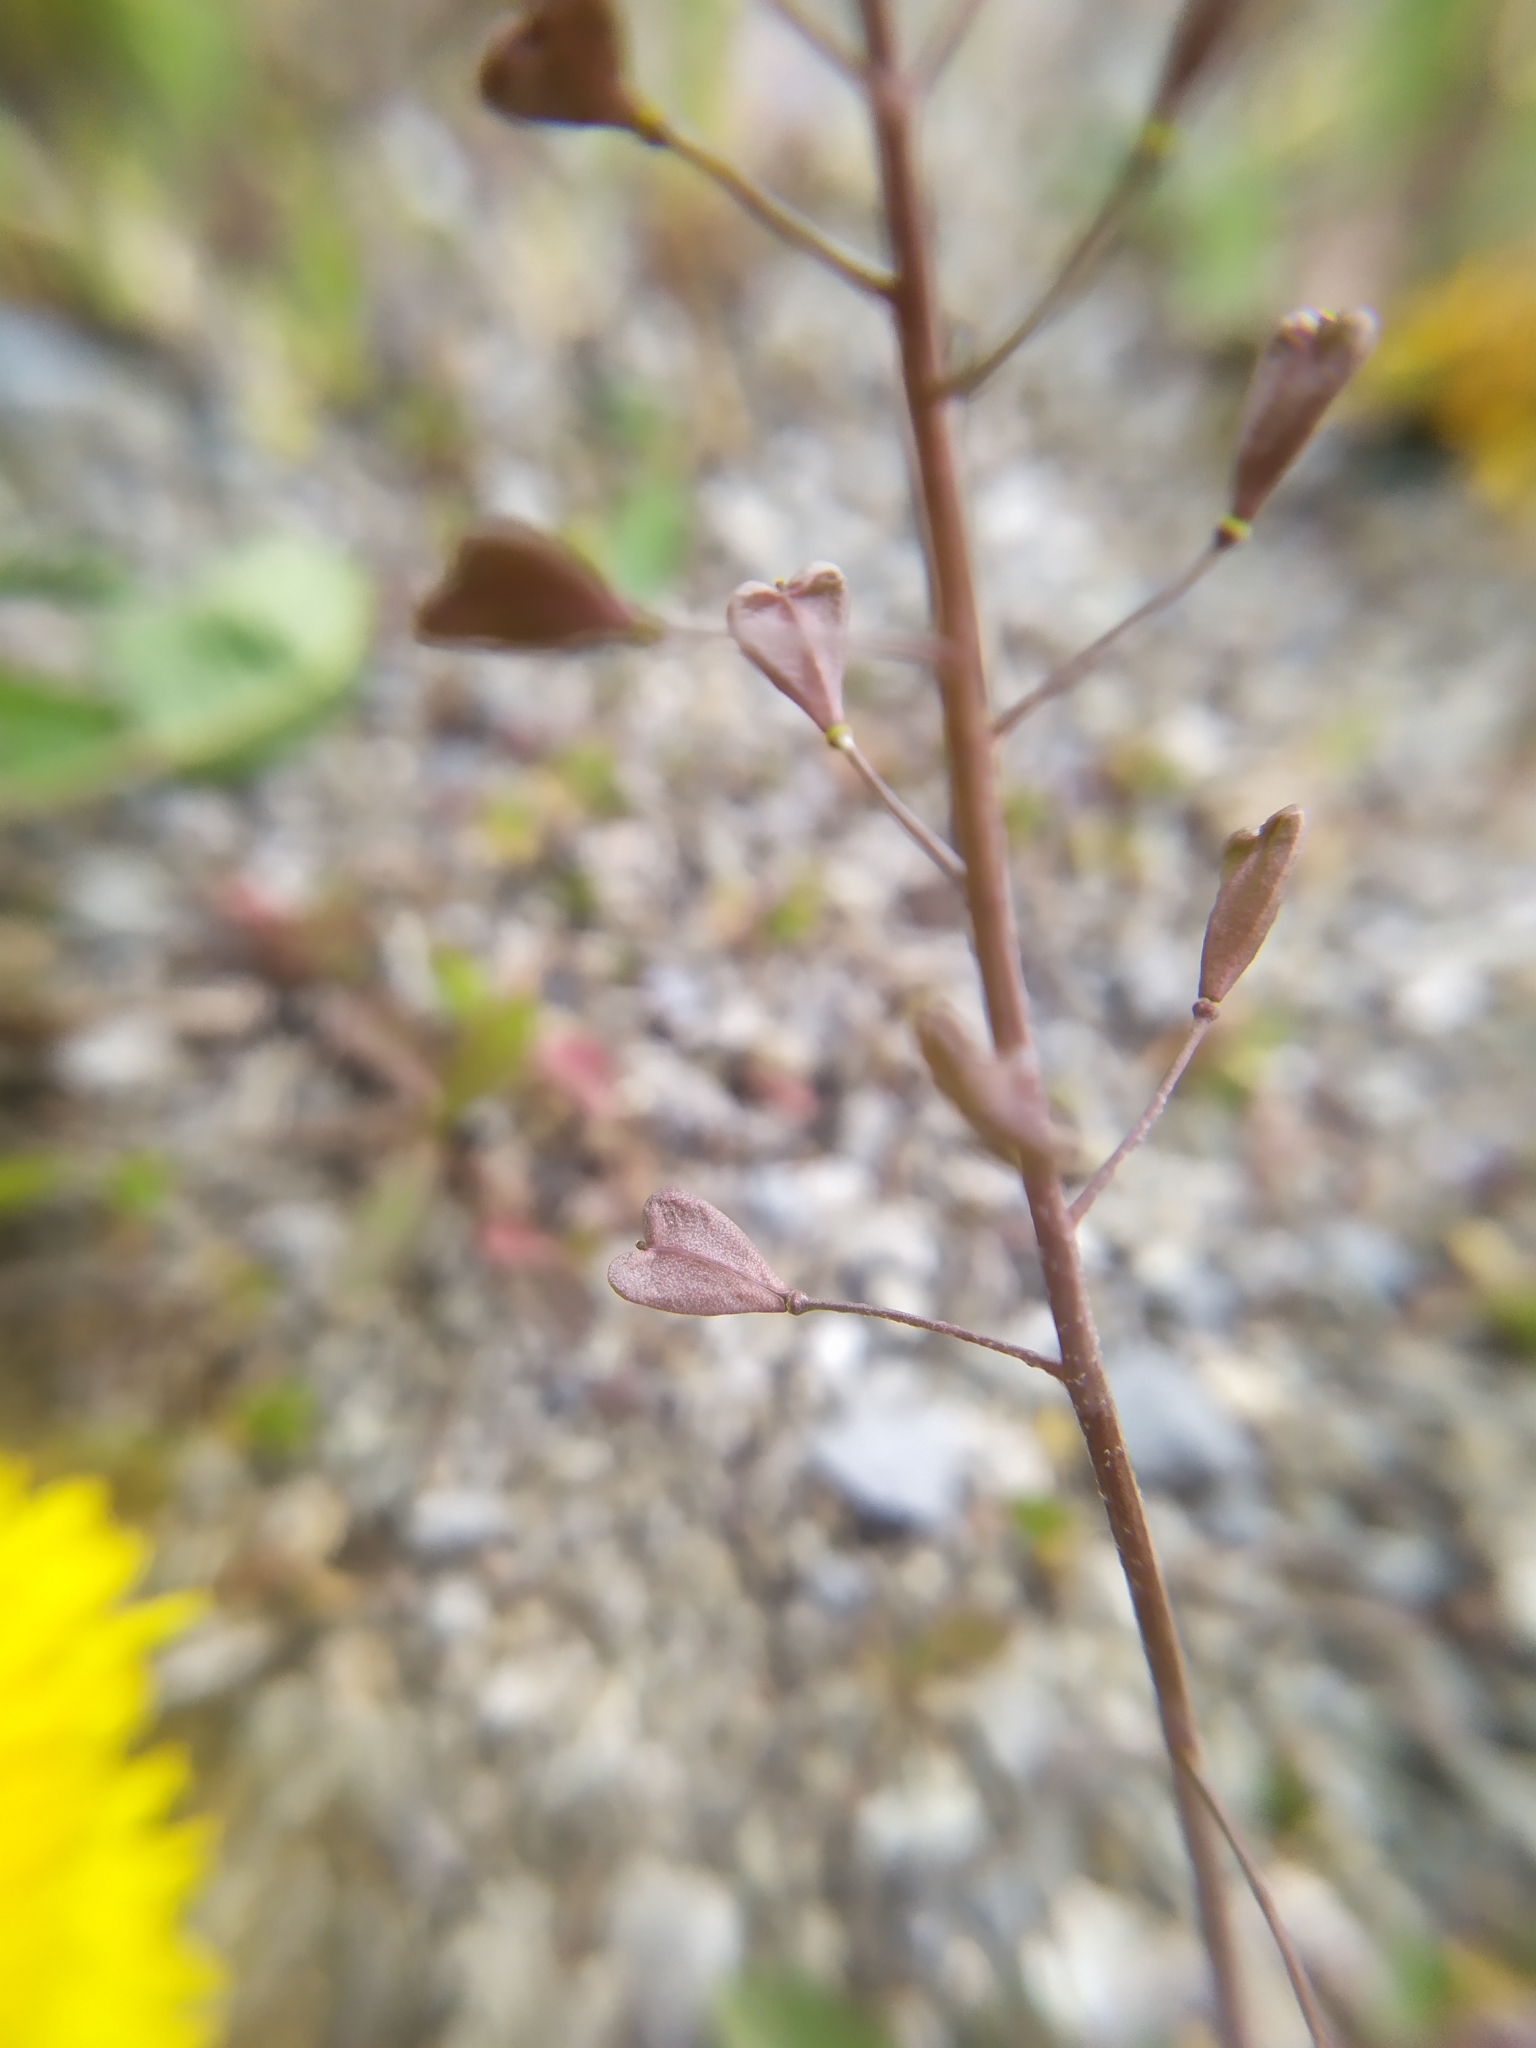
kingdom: Plantae
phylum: Tracheophyta
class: Magnoliopsida
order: Brassicales
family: Brassicaceae
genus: Capsella
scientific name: Capsella bursa-pastoris
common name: Shepherd's purse
